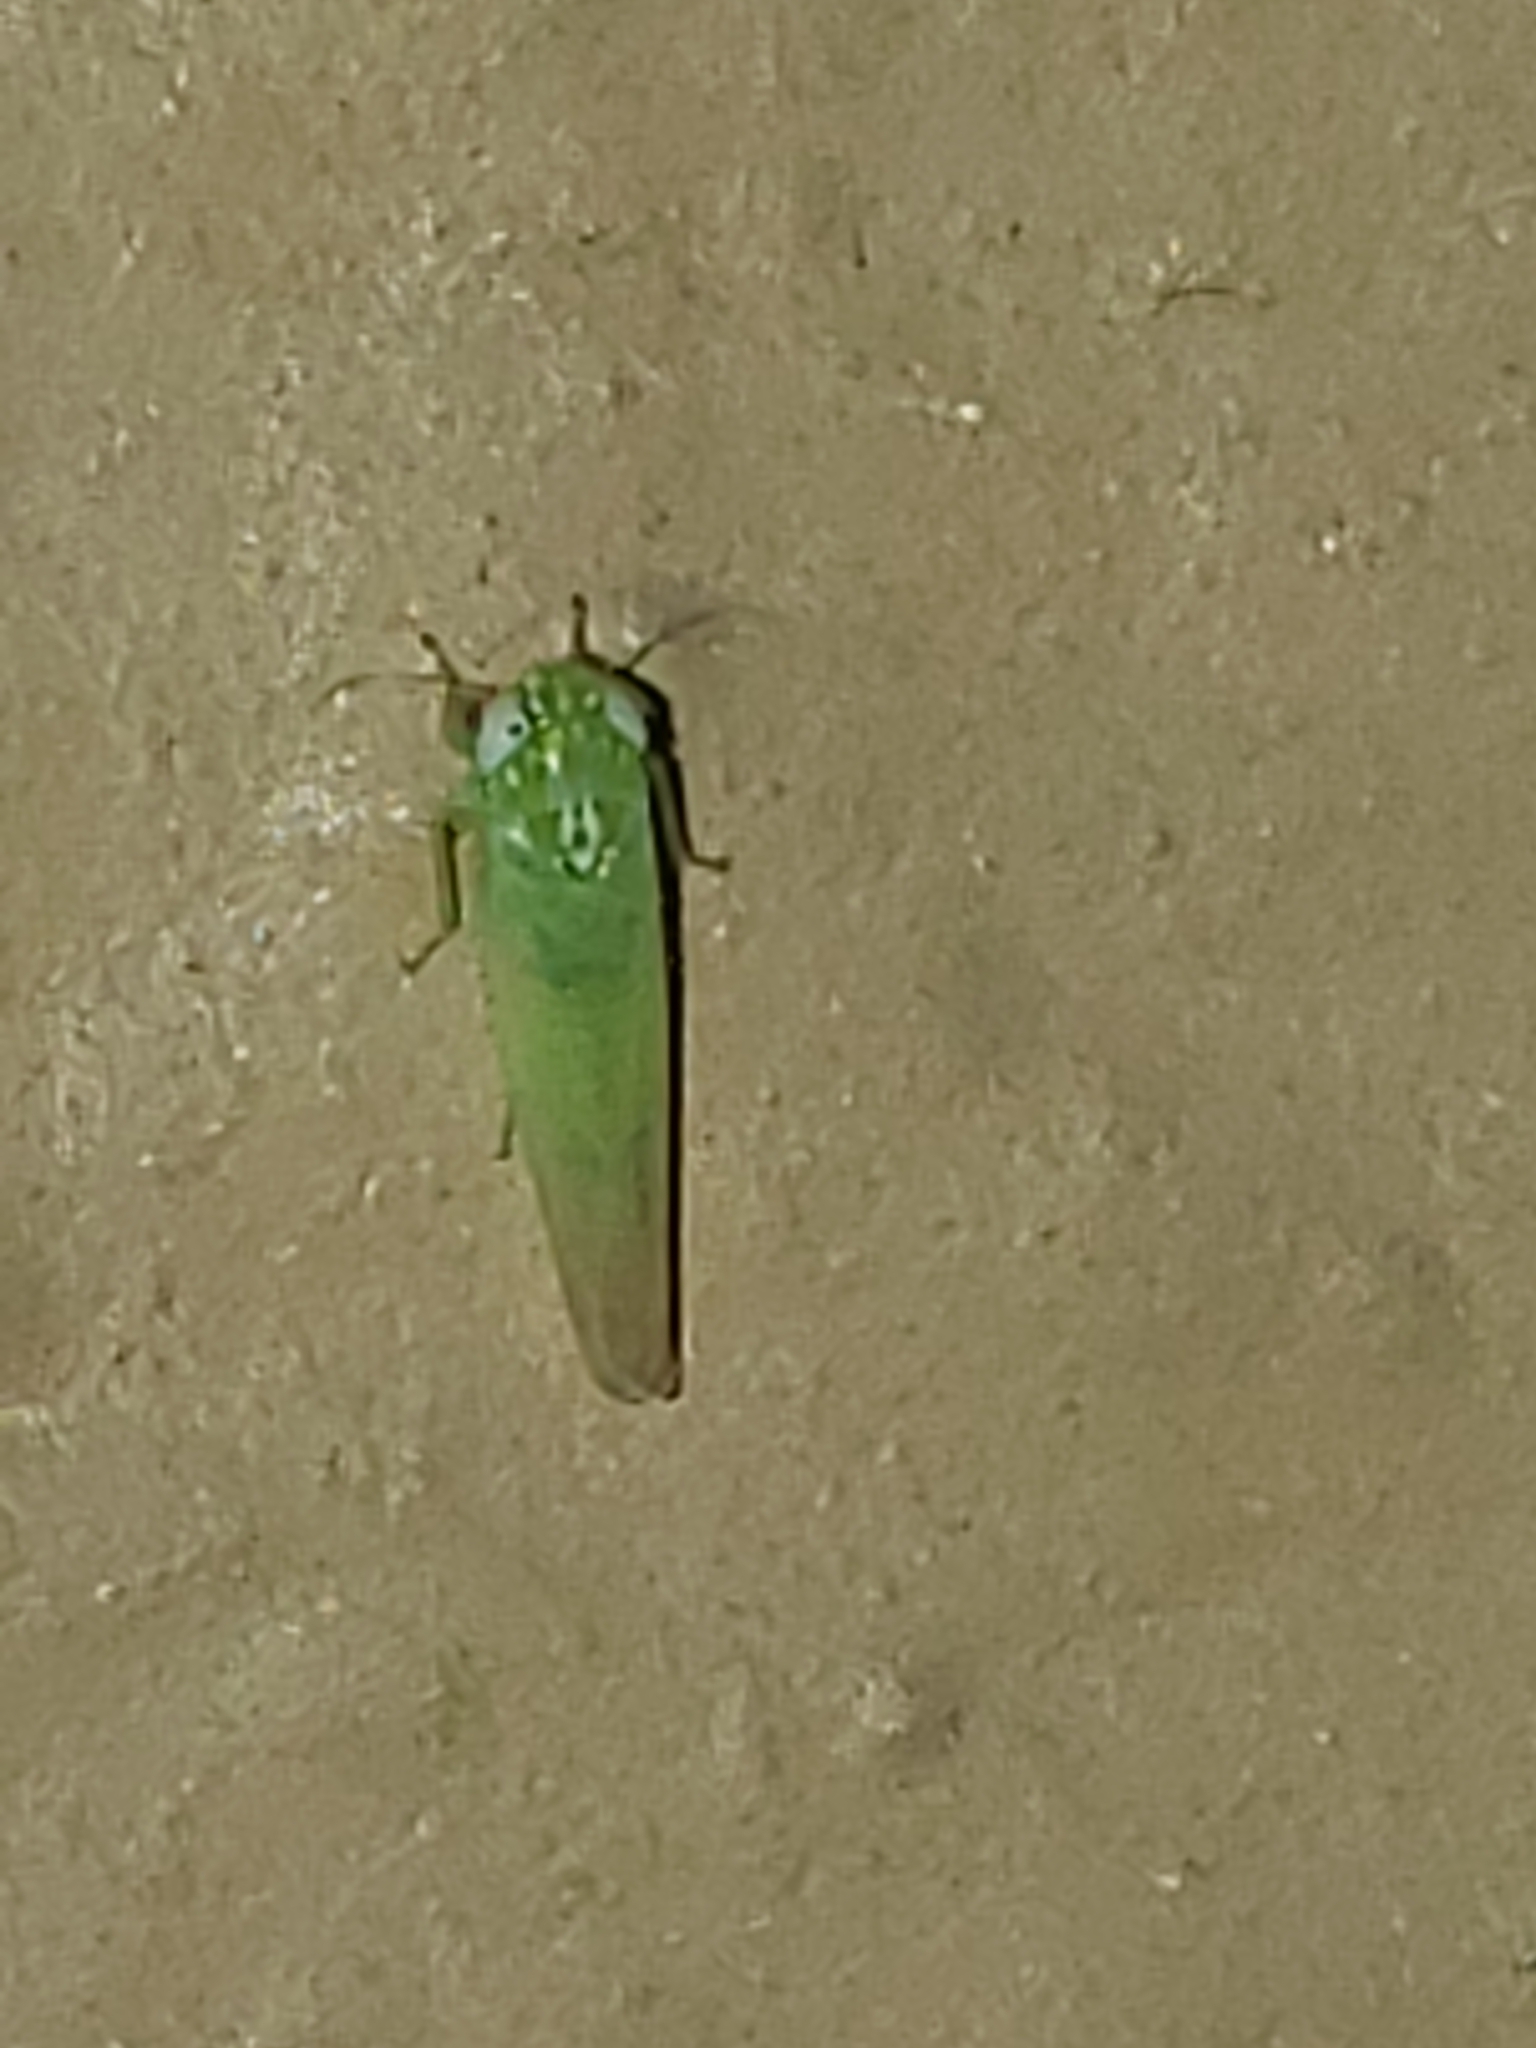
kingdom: Animalia
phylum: Arthropoda
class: Insecta
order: Hemiptera
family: Cicadellidae
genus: Empoasca
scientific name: Empoasca fabae
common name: Potato leafhopper
